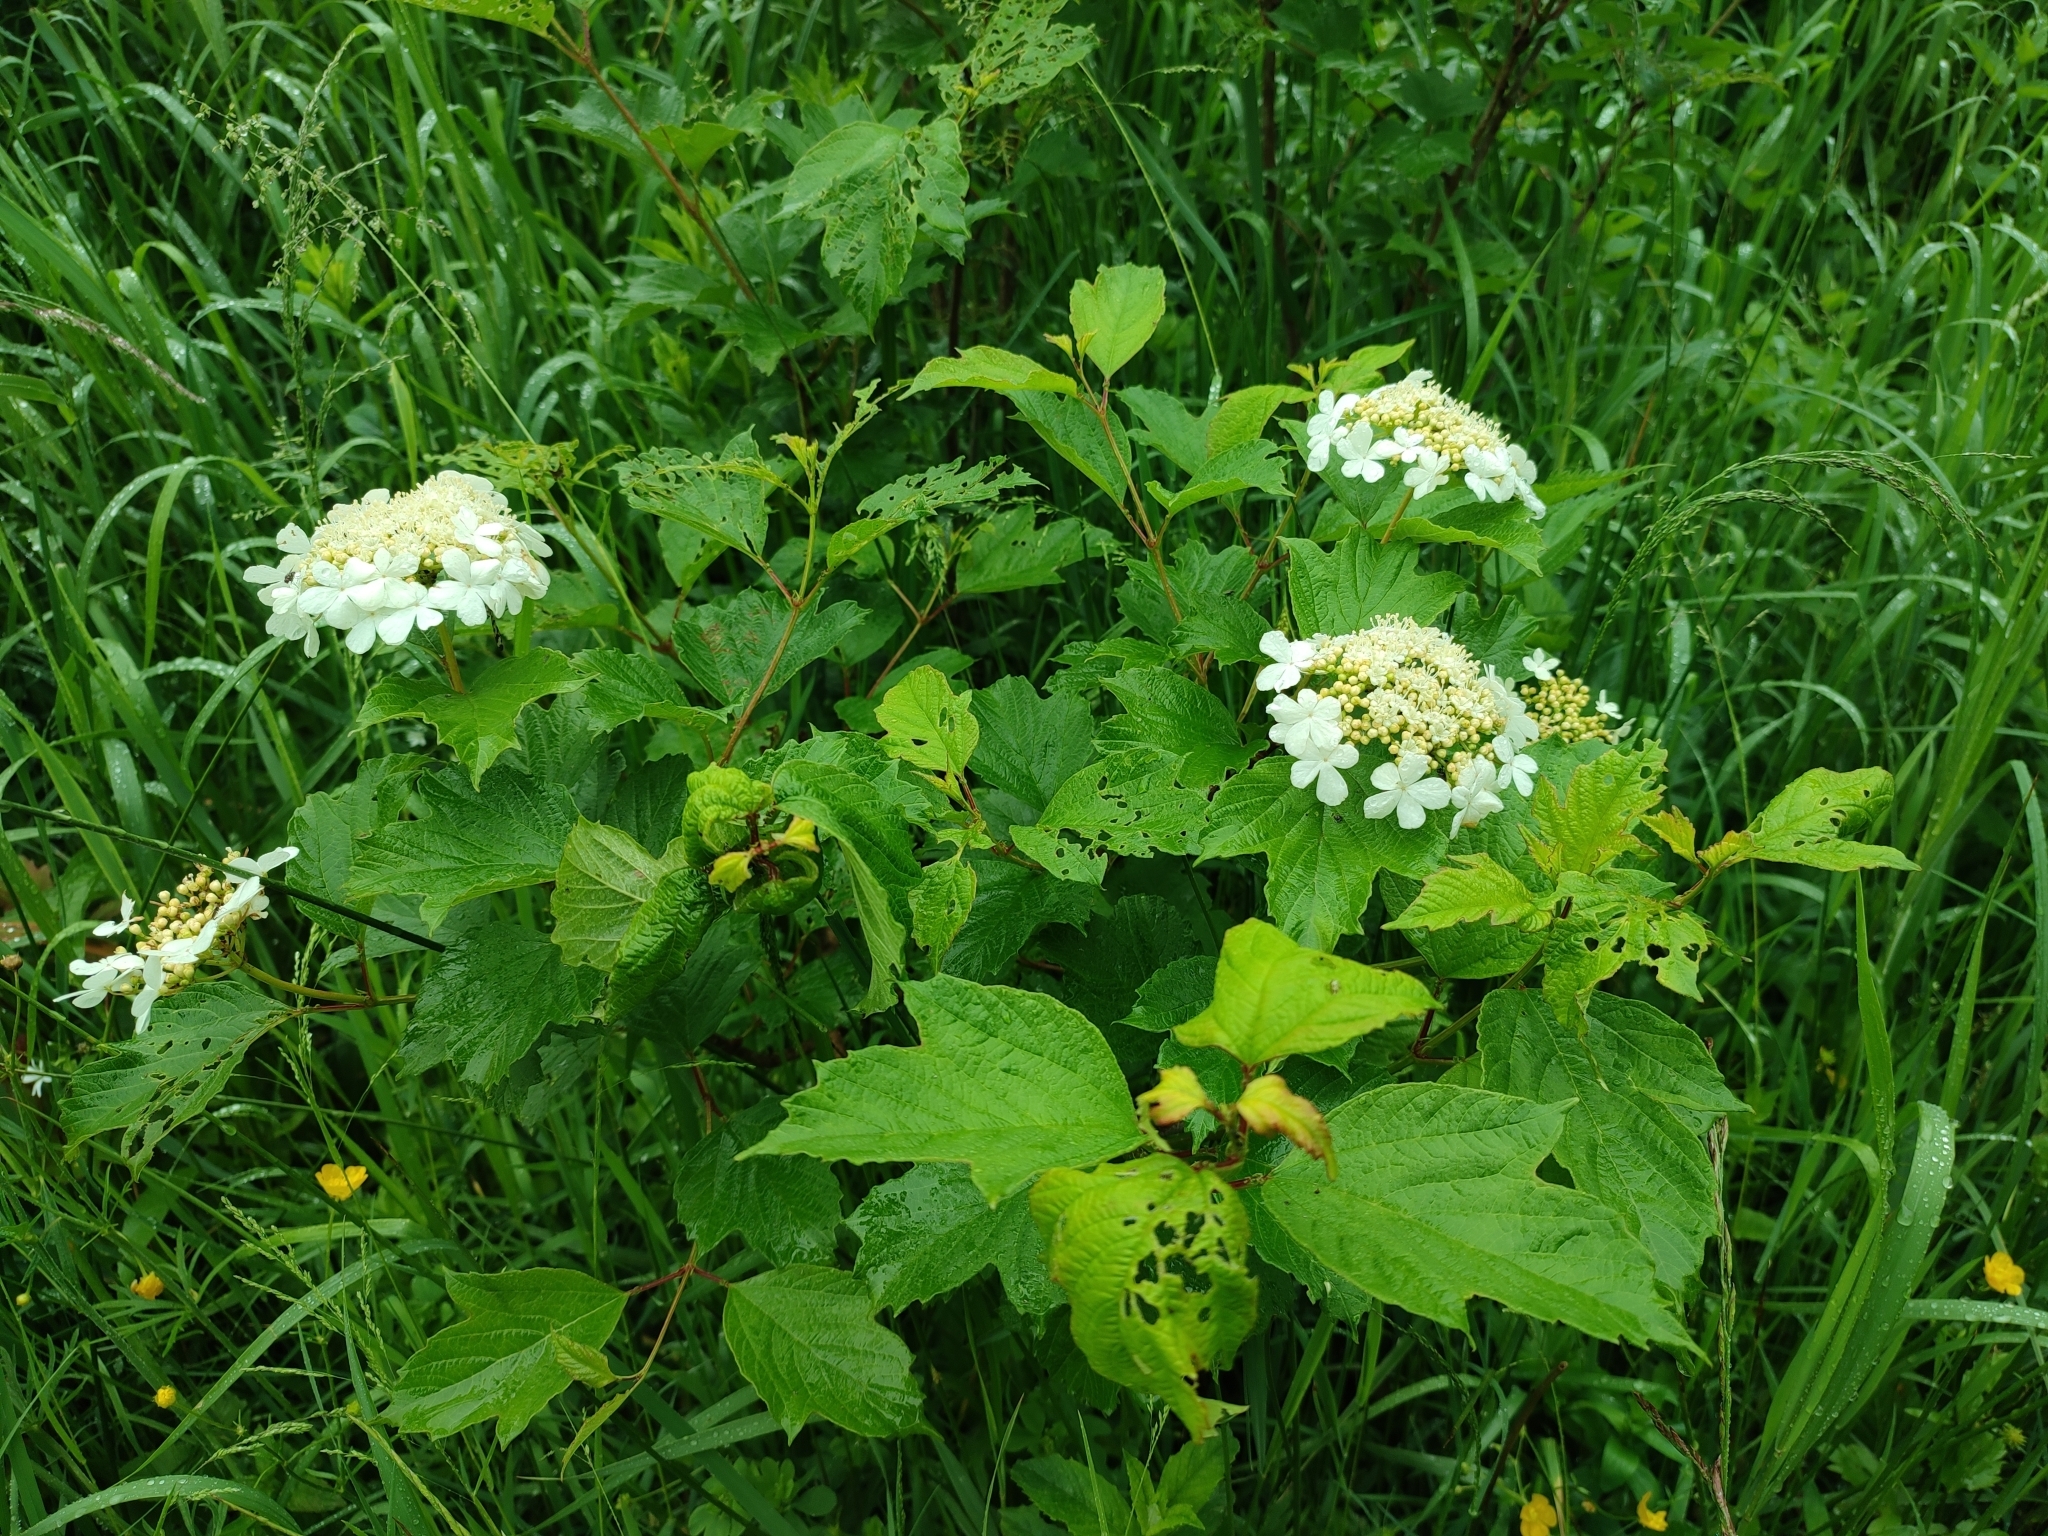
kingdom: Plantae
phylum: Tracheophyta
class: Magnoliopsida
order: Dipsacales
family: Viburnaceae
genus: Viburnum
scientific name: Viburnum opulus
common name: Guelder-rose
